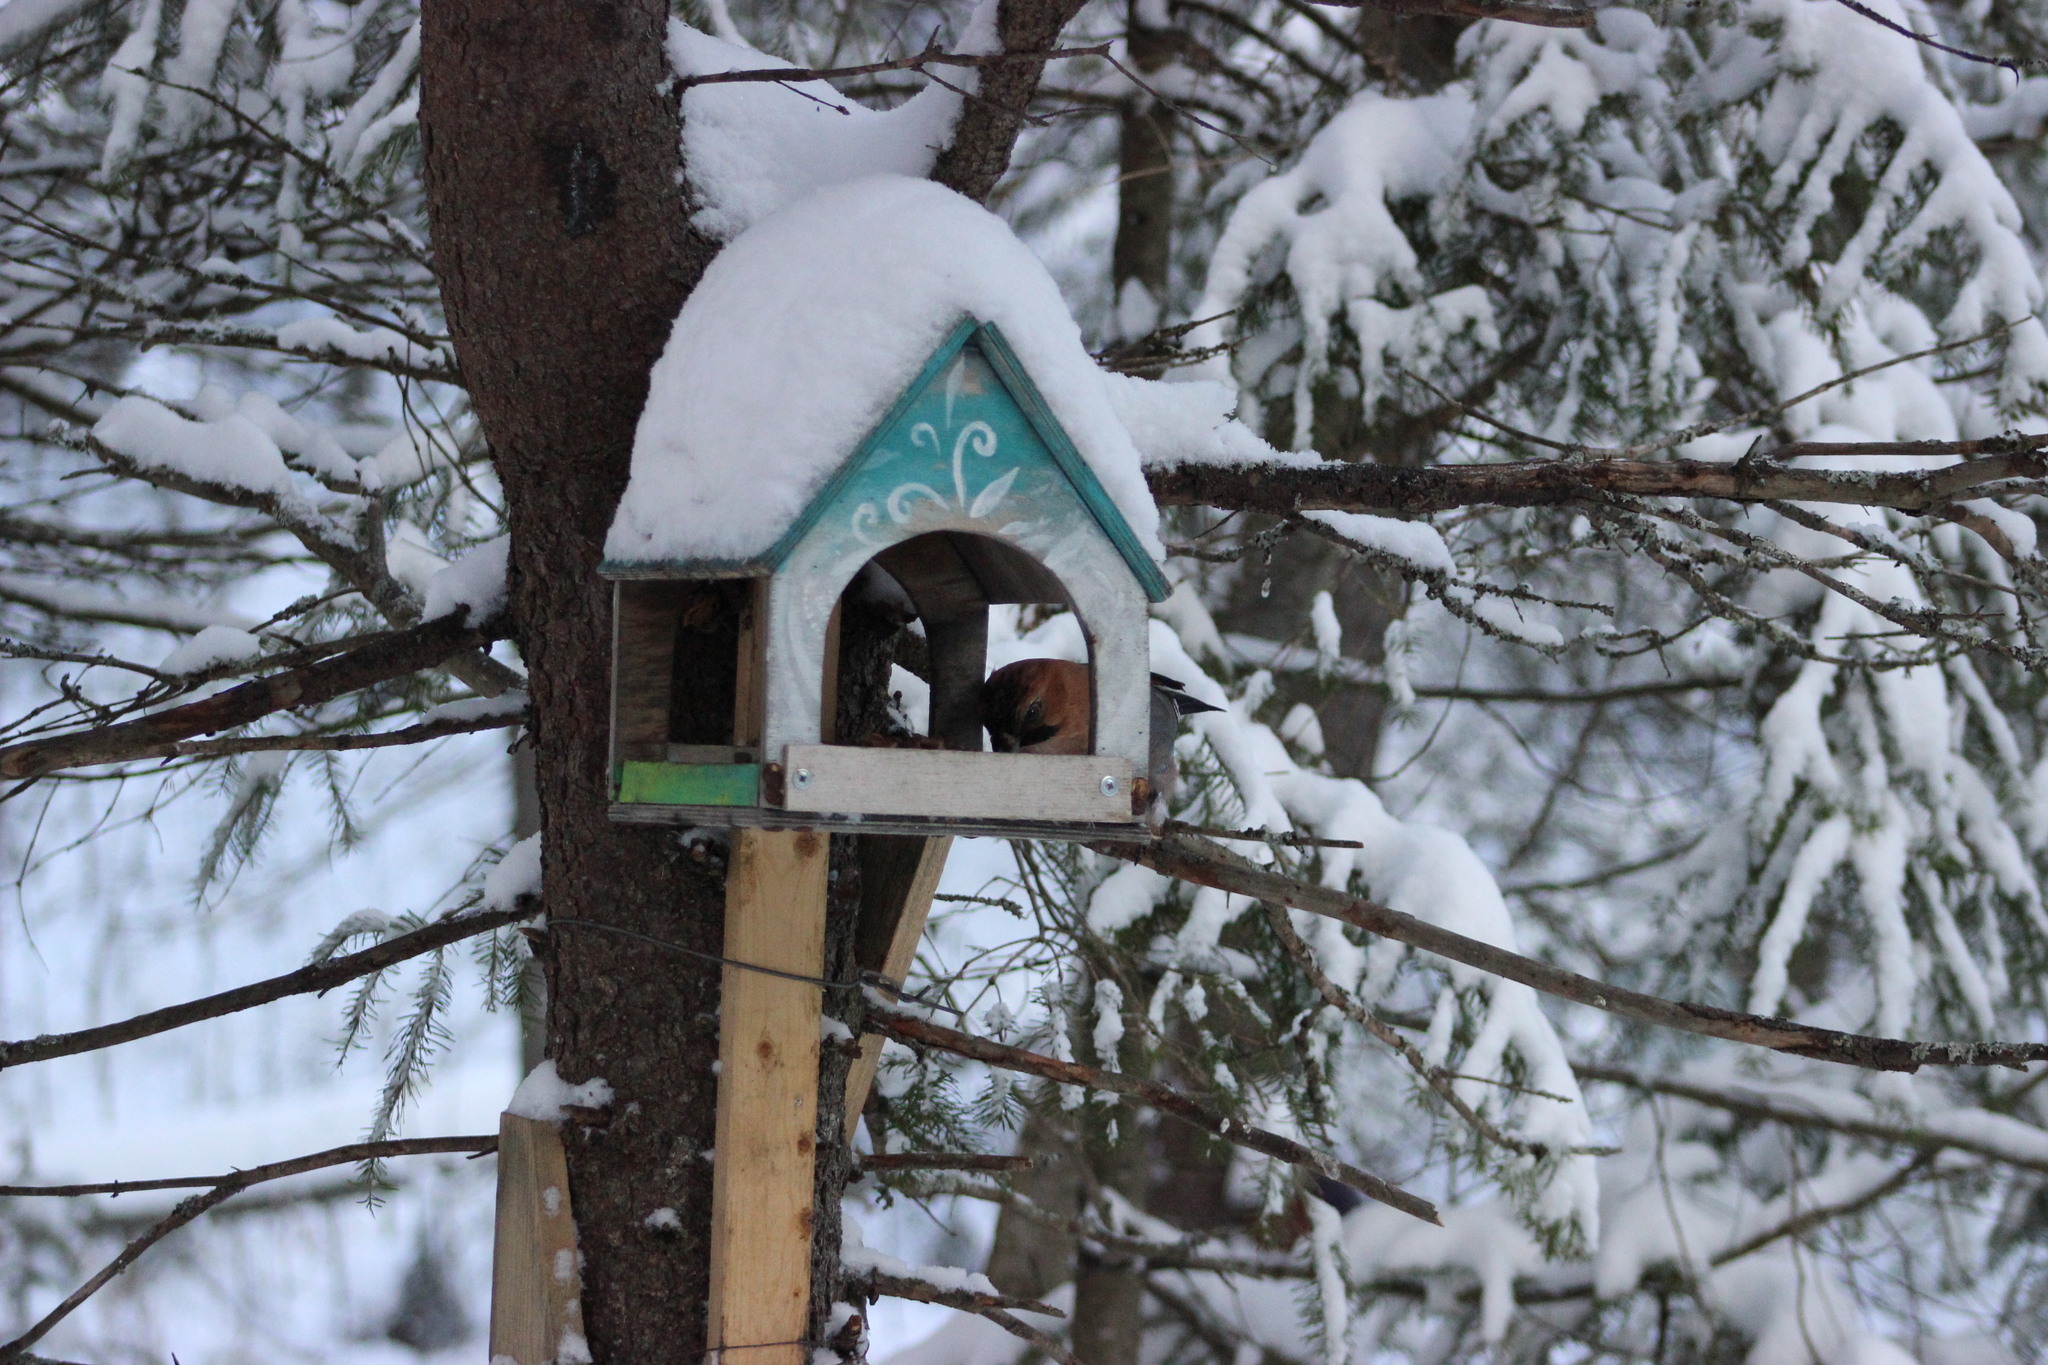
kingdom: Animalia
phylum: Chordata
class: Aves
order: Passeriformes
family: Corvidae
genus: Garrulus
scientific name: Garrulus glandarius
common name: Eurasian jay
